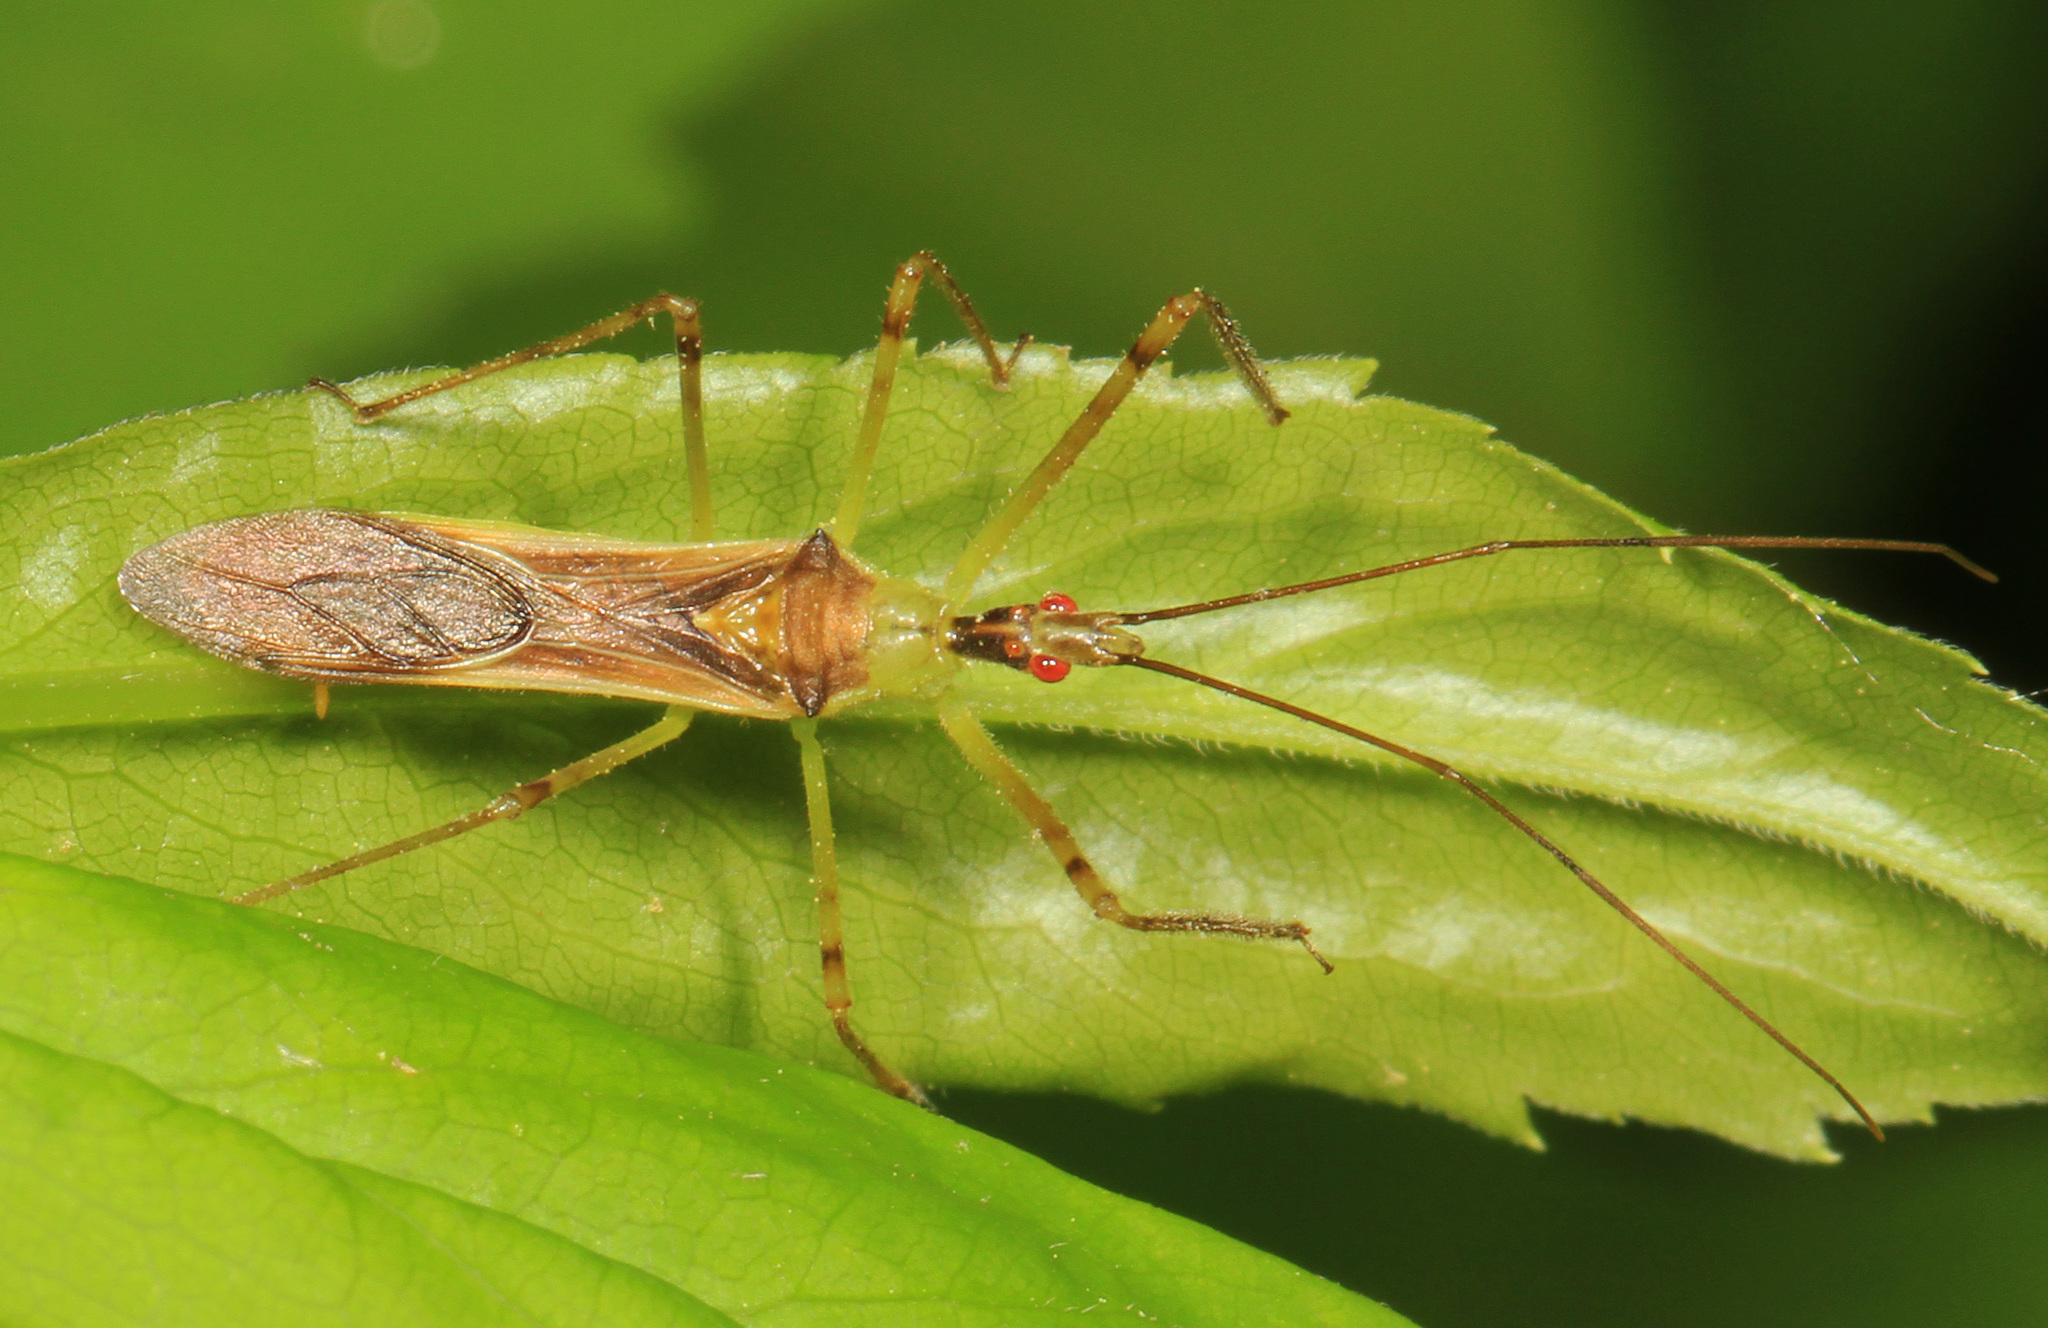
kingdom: Animalia
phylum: Arthropoda
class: Insecta
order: Hemiptera
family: Reduviidae
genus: Zelus
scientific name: Zelus luridus
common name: Pale green assassin bug
